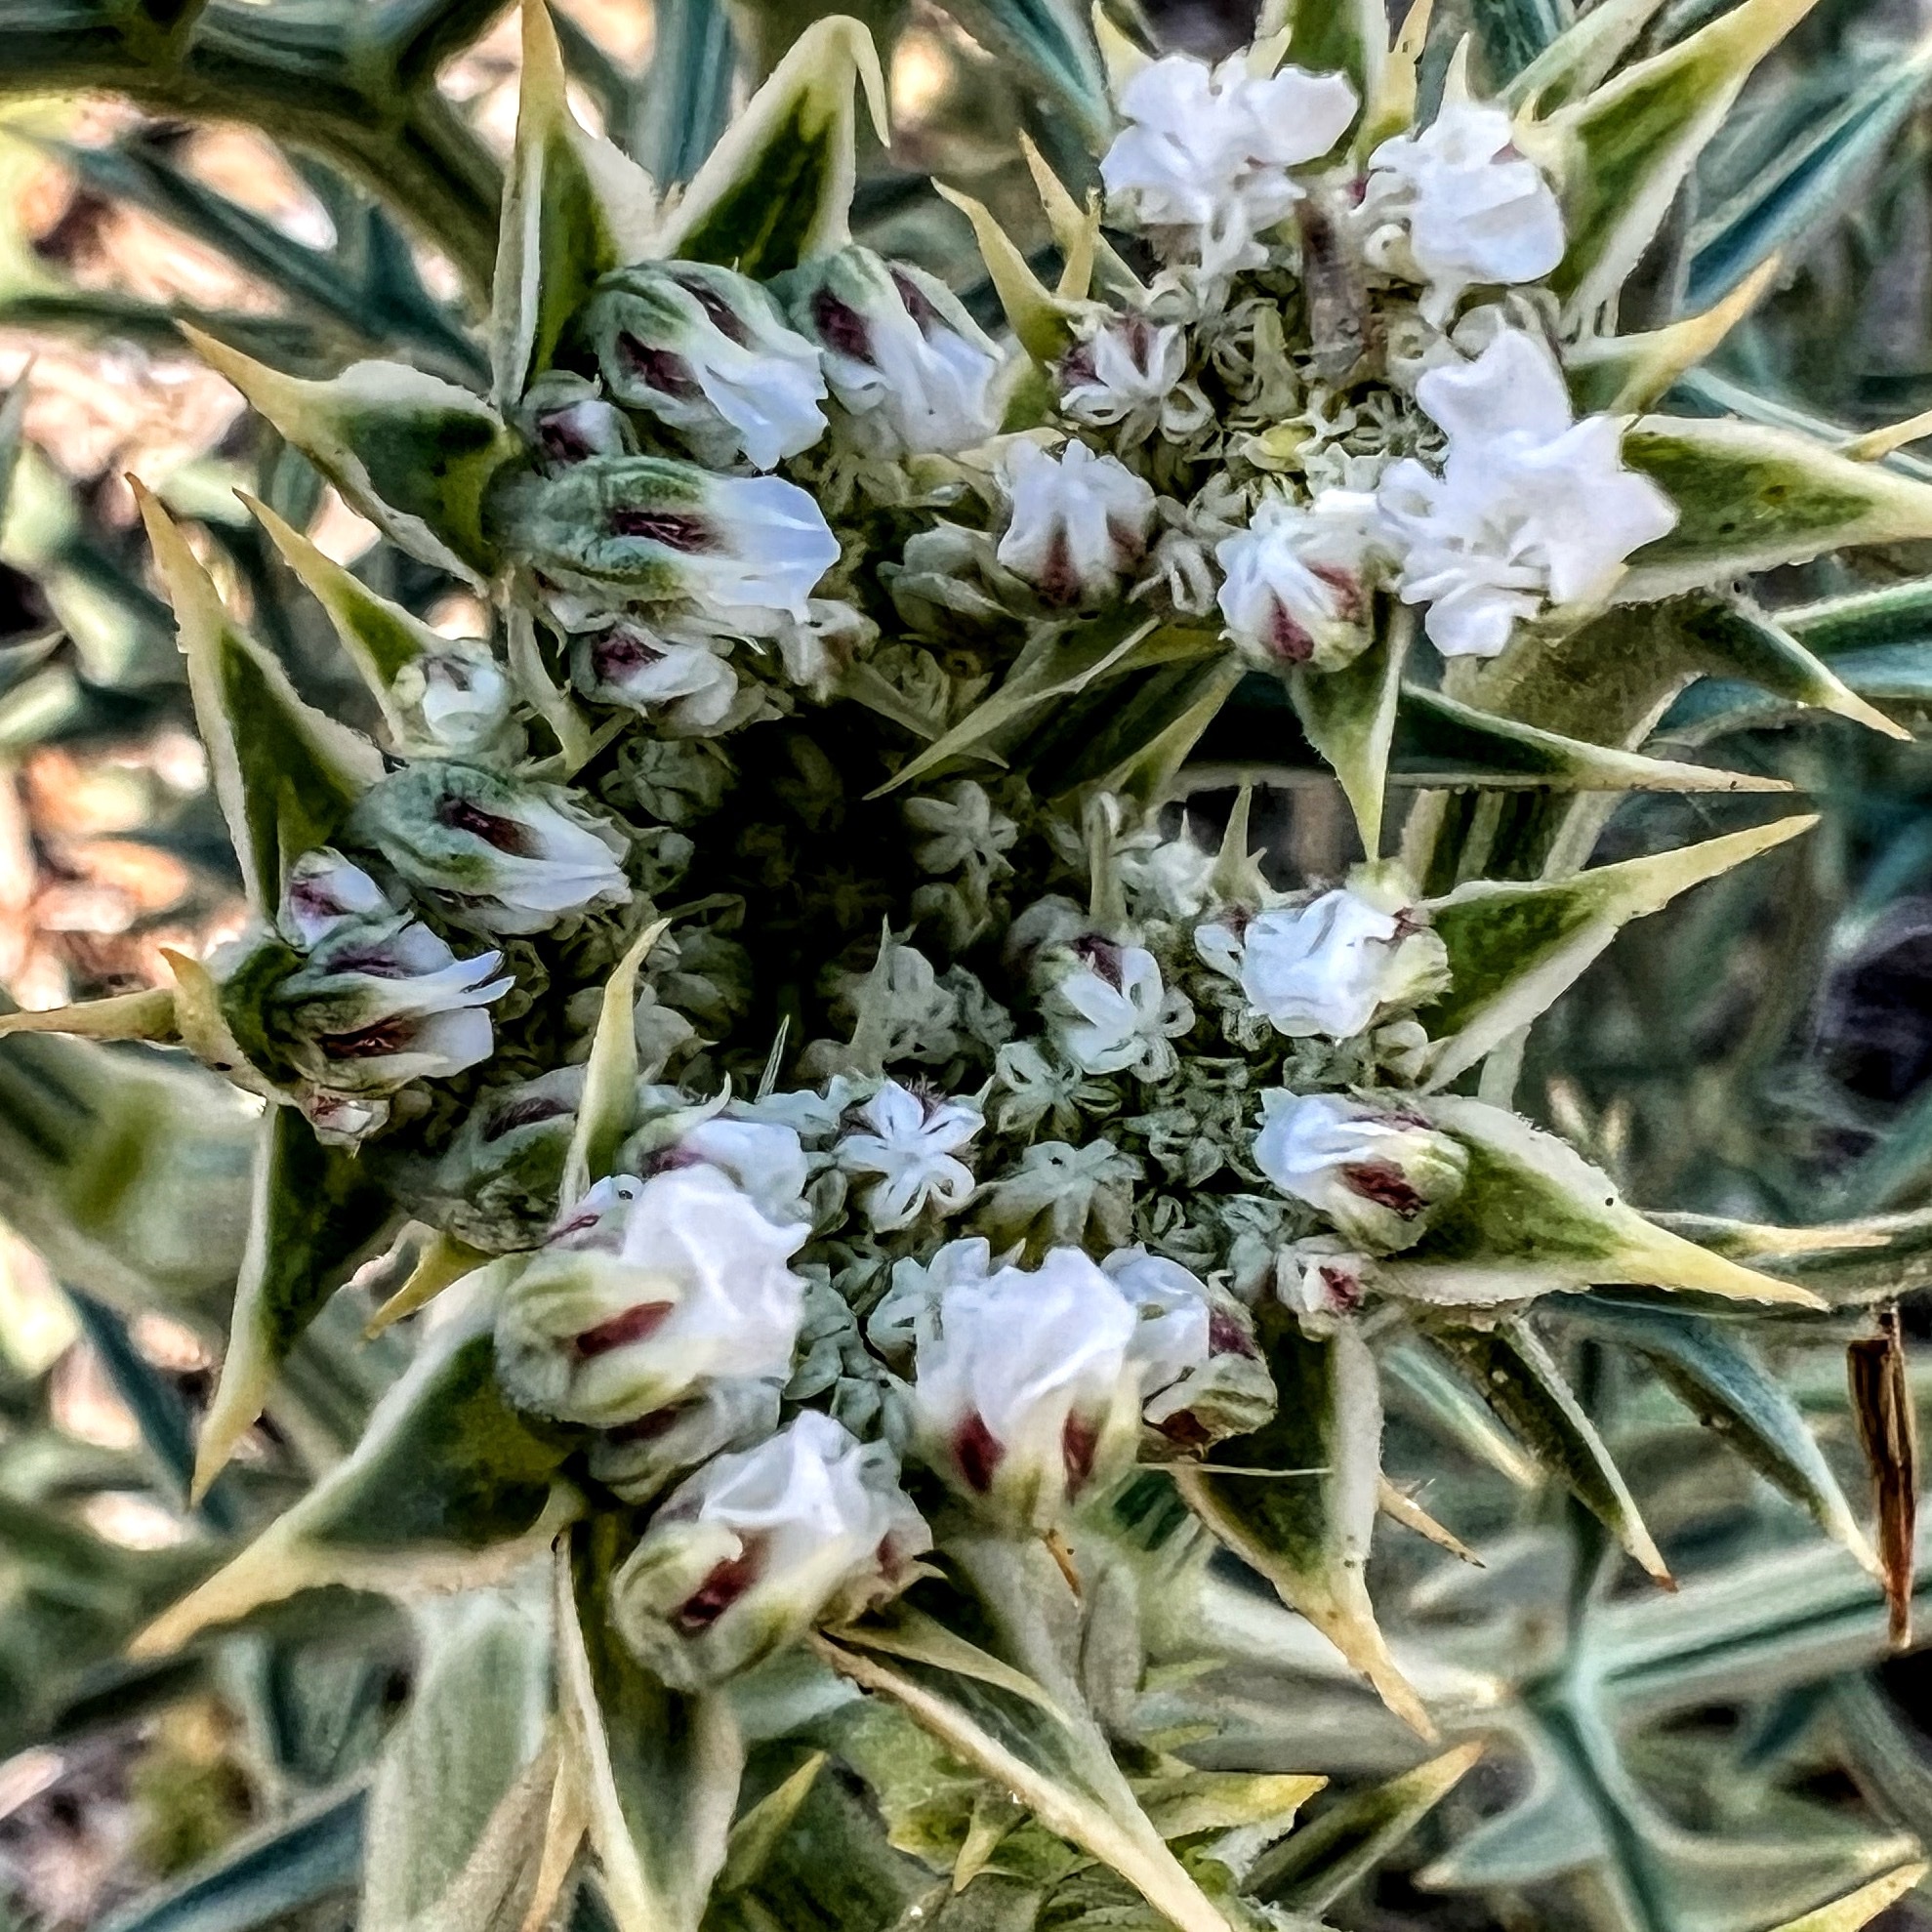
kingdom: Plantae
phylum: Tracheophyta
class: Magnoliopsida
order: Apiales
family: Apiaceae
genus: Echinophora
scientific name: Echinophora spinosa
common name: Prickly samphire
